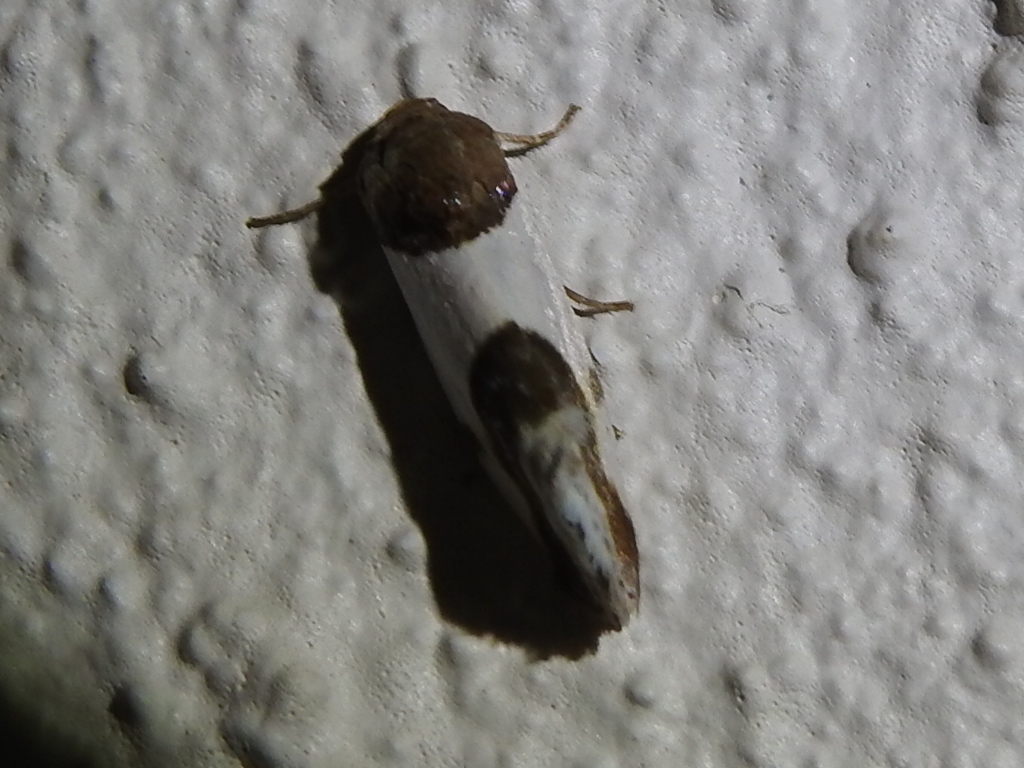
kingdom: Animalia
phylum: Arthropoda
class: Insecta
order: Lepidoptera
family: Noctuidae
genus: Acontia
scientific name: Acontia Tarache lactipennis
